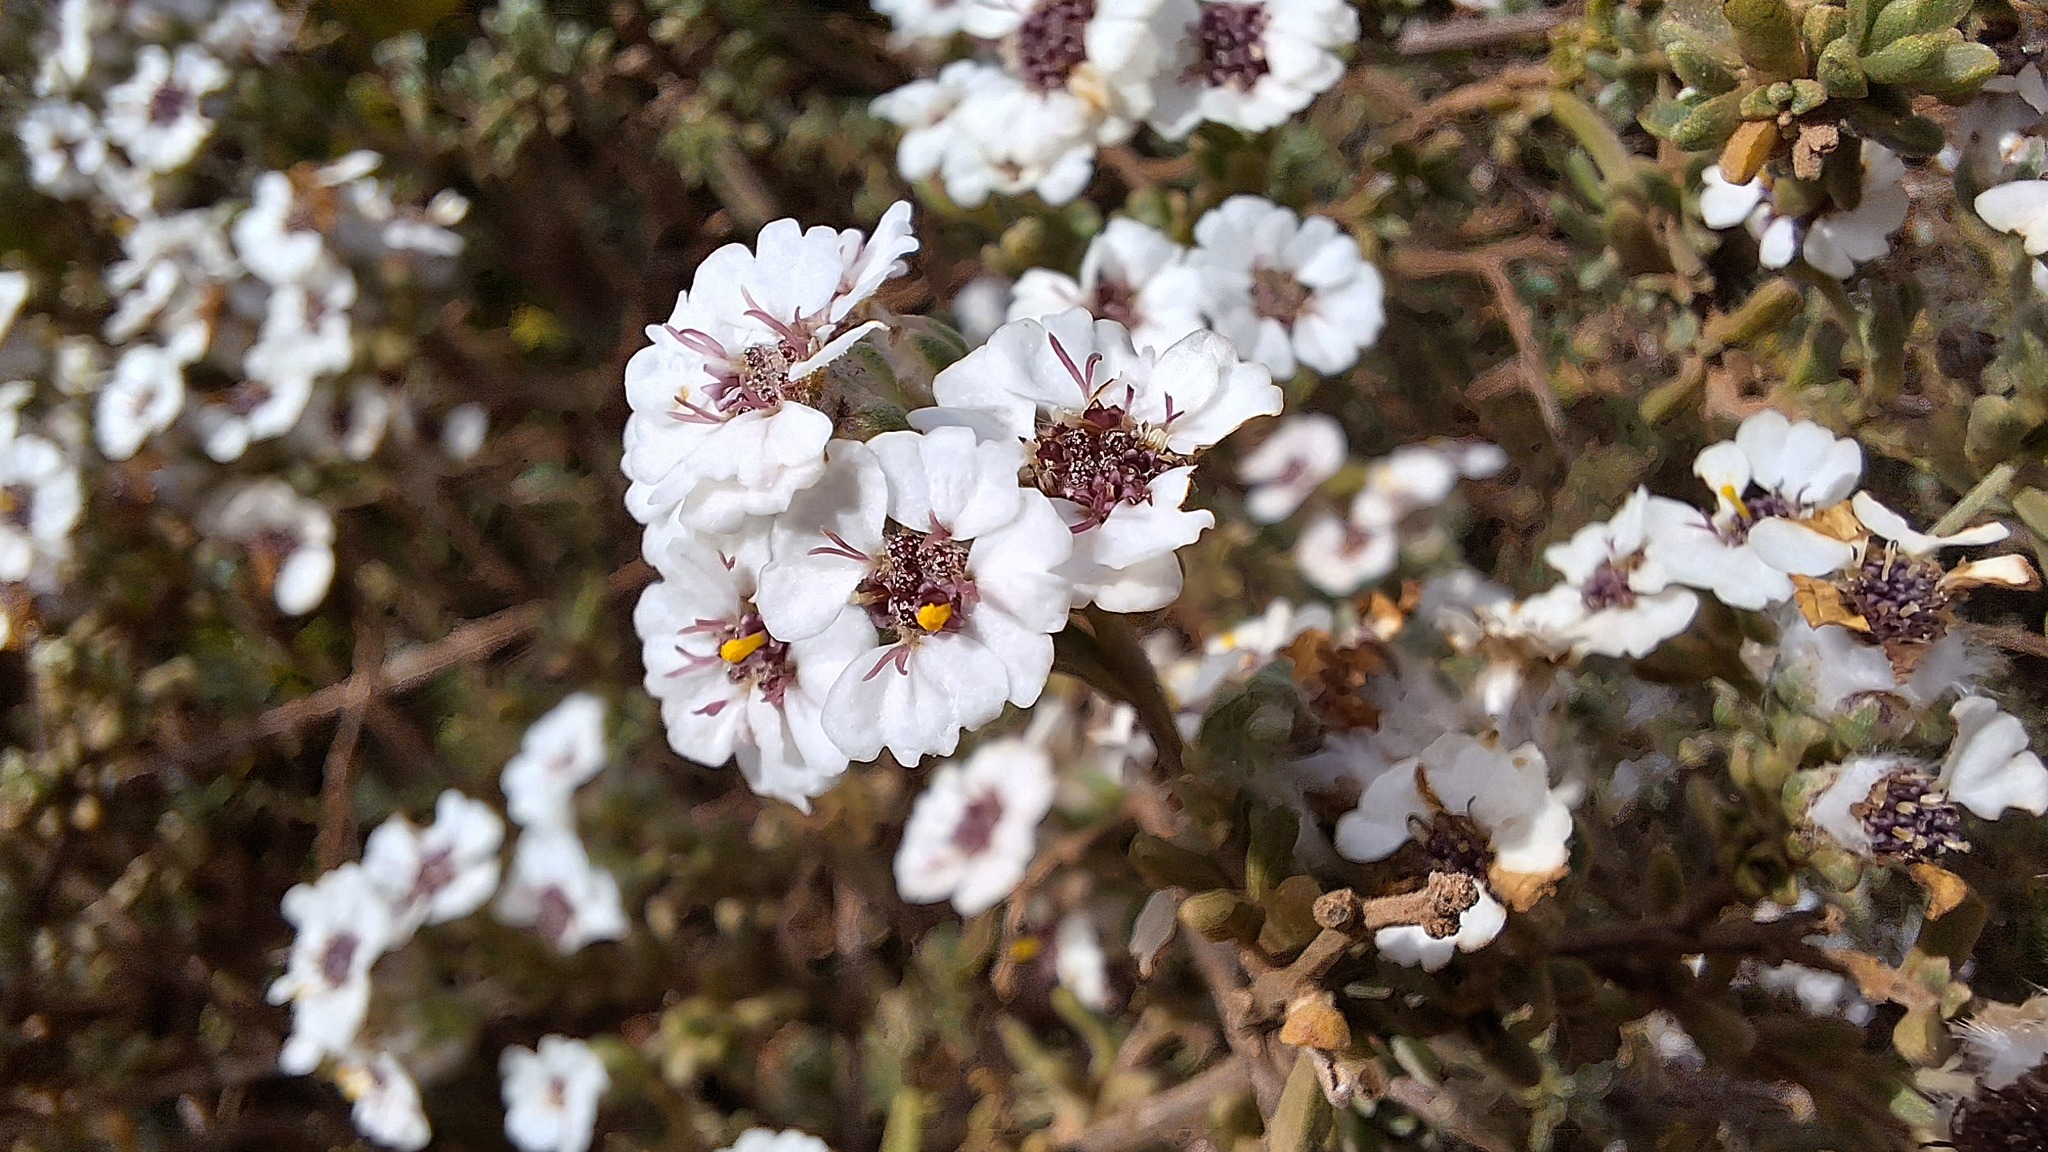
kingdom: Plantae
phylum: Tracheophyta
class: Magnoliopsida
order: Asterales
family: Asteraceae
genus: Eriocephalus
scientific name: Eriocephalus africanus
